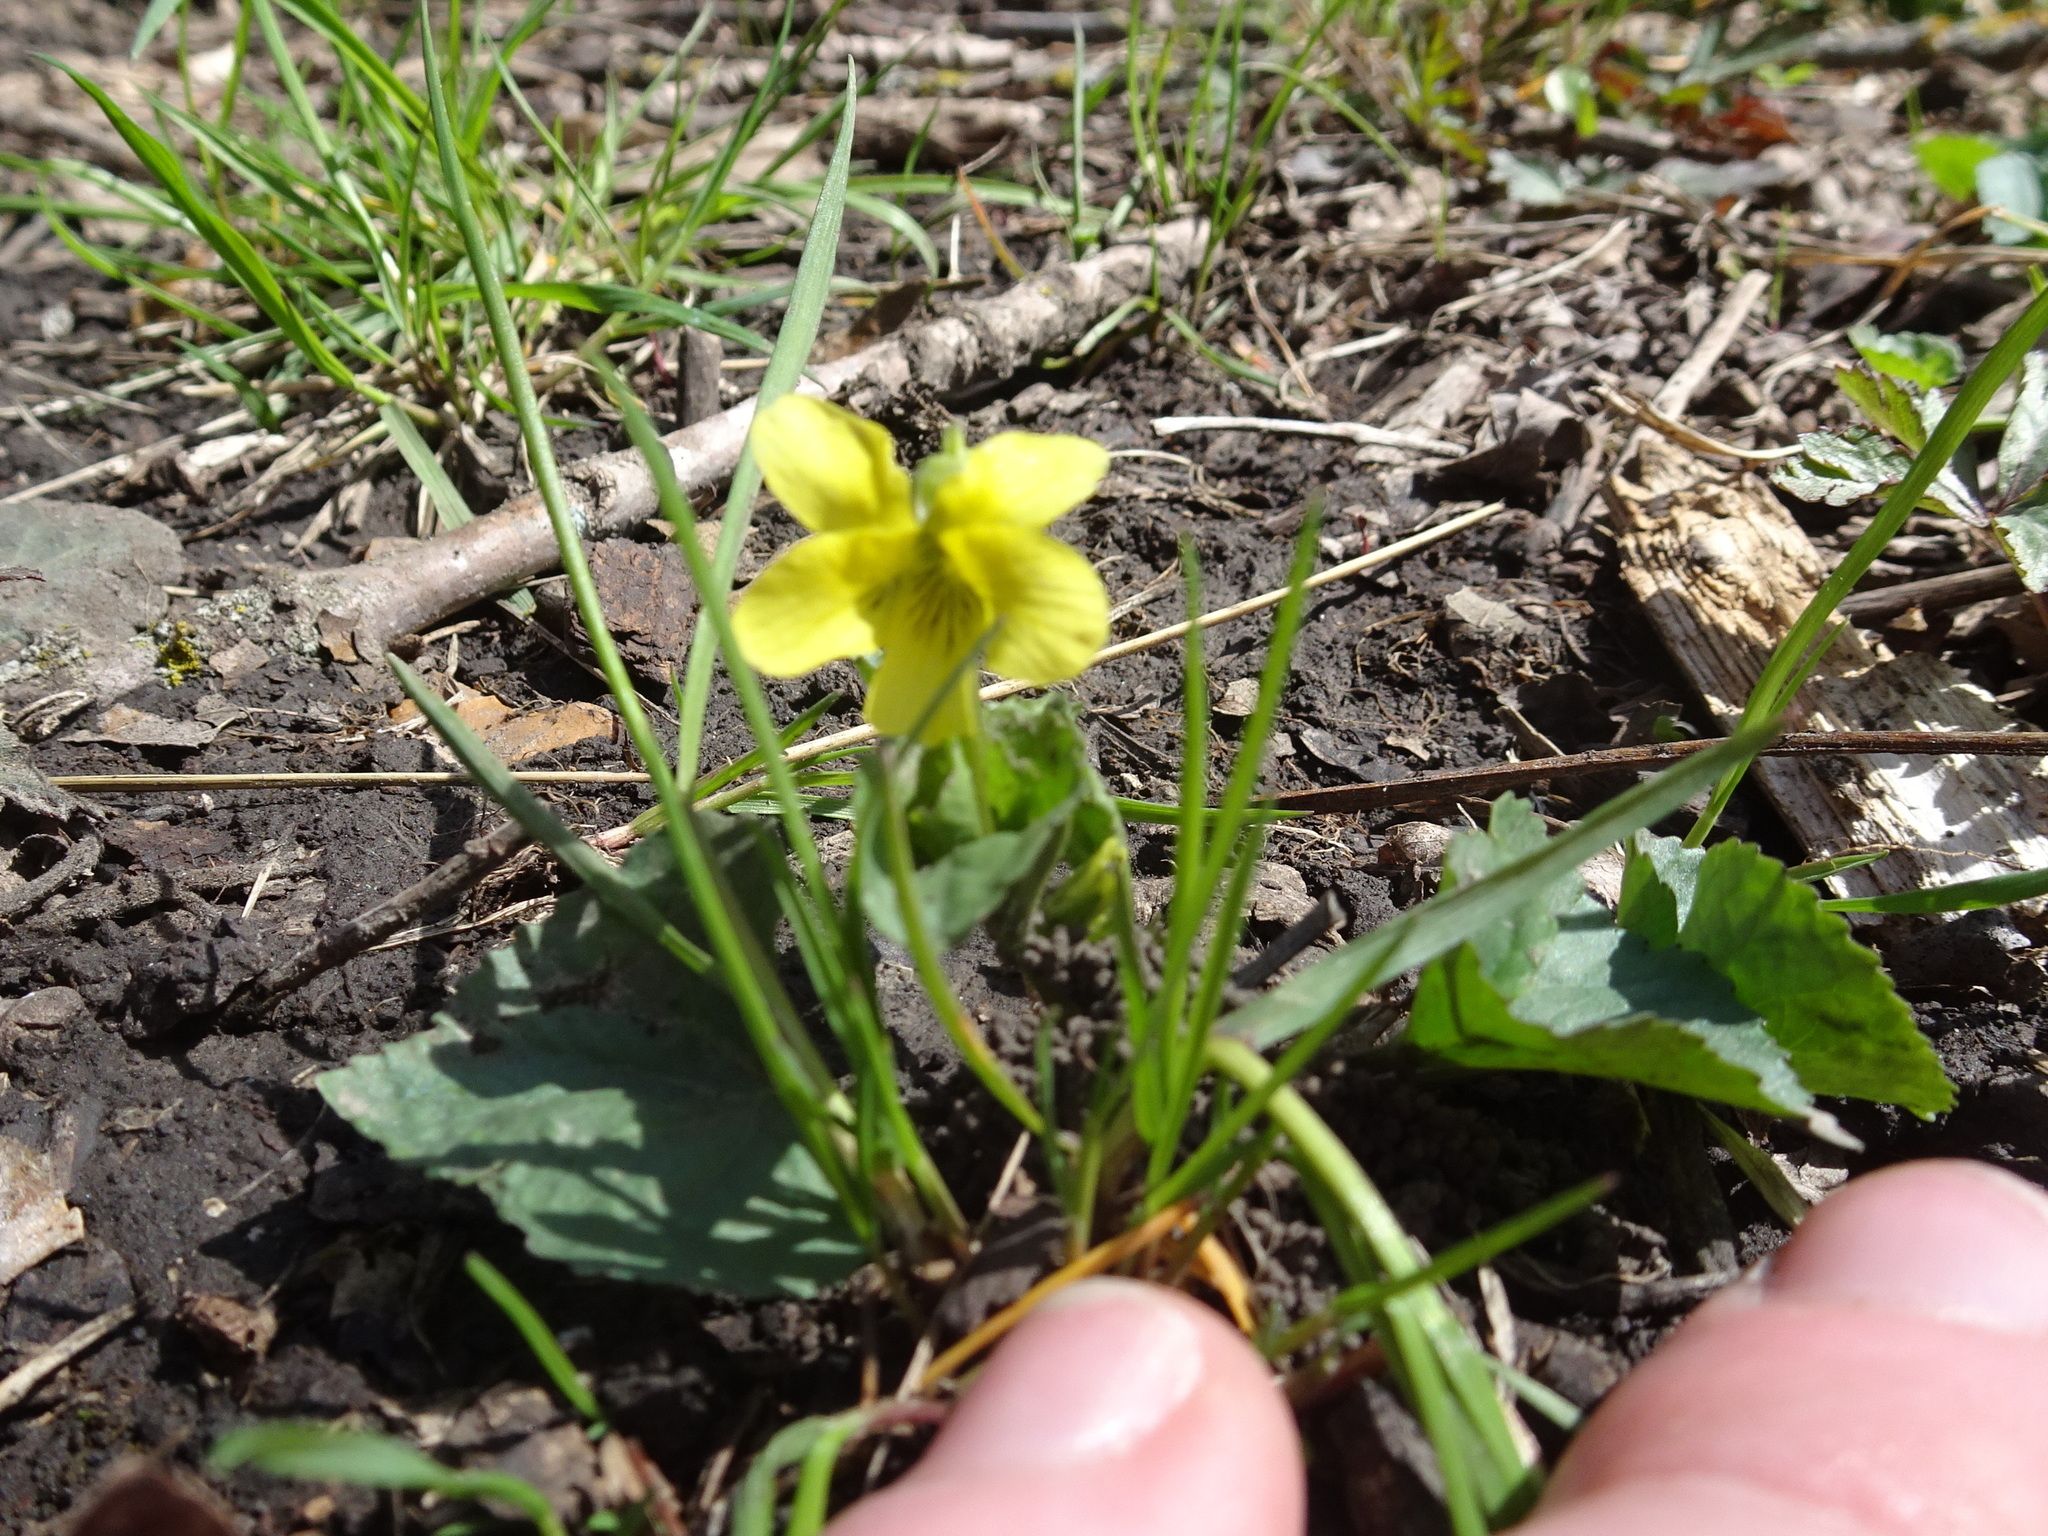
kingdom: Plantae
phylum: Tracheophyta
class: Magnoliopsida
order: Malpighiales
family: Violaceae
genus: Viola
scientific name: Viola eriocarpa
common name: Smooth yellow violet
